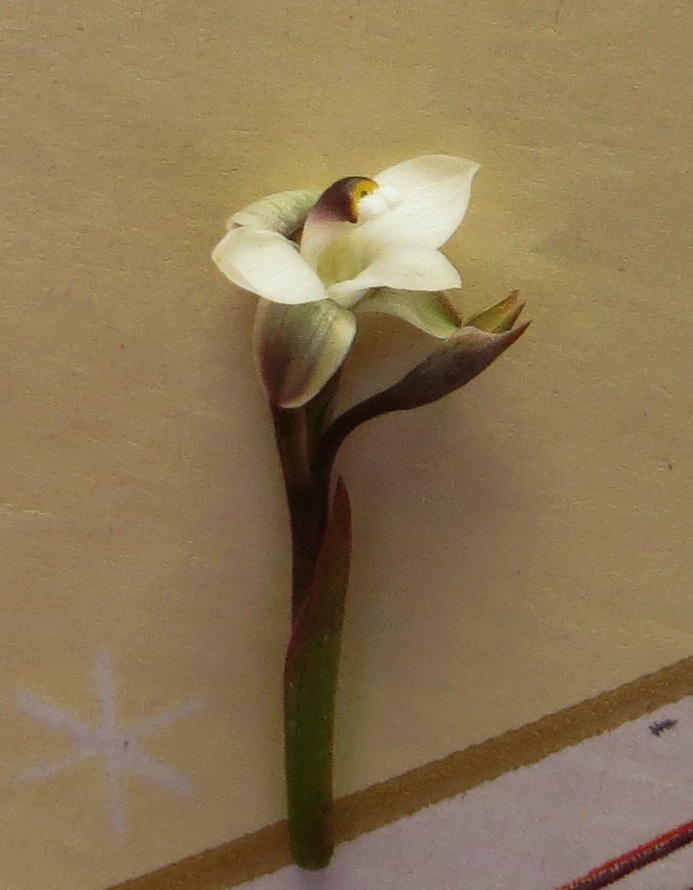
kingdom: Plantae
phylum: Tracheophyta
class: Liliopsida
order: Asparagales
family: Orchidaceae
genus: Thelymitra
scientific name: Thelymitra longifolia
